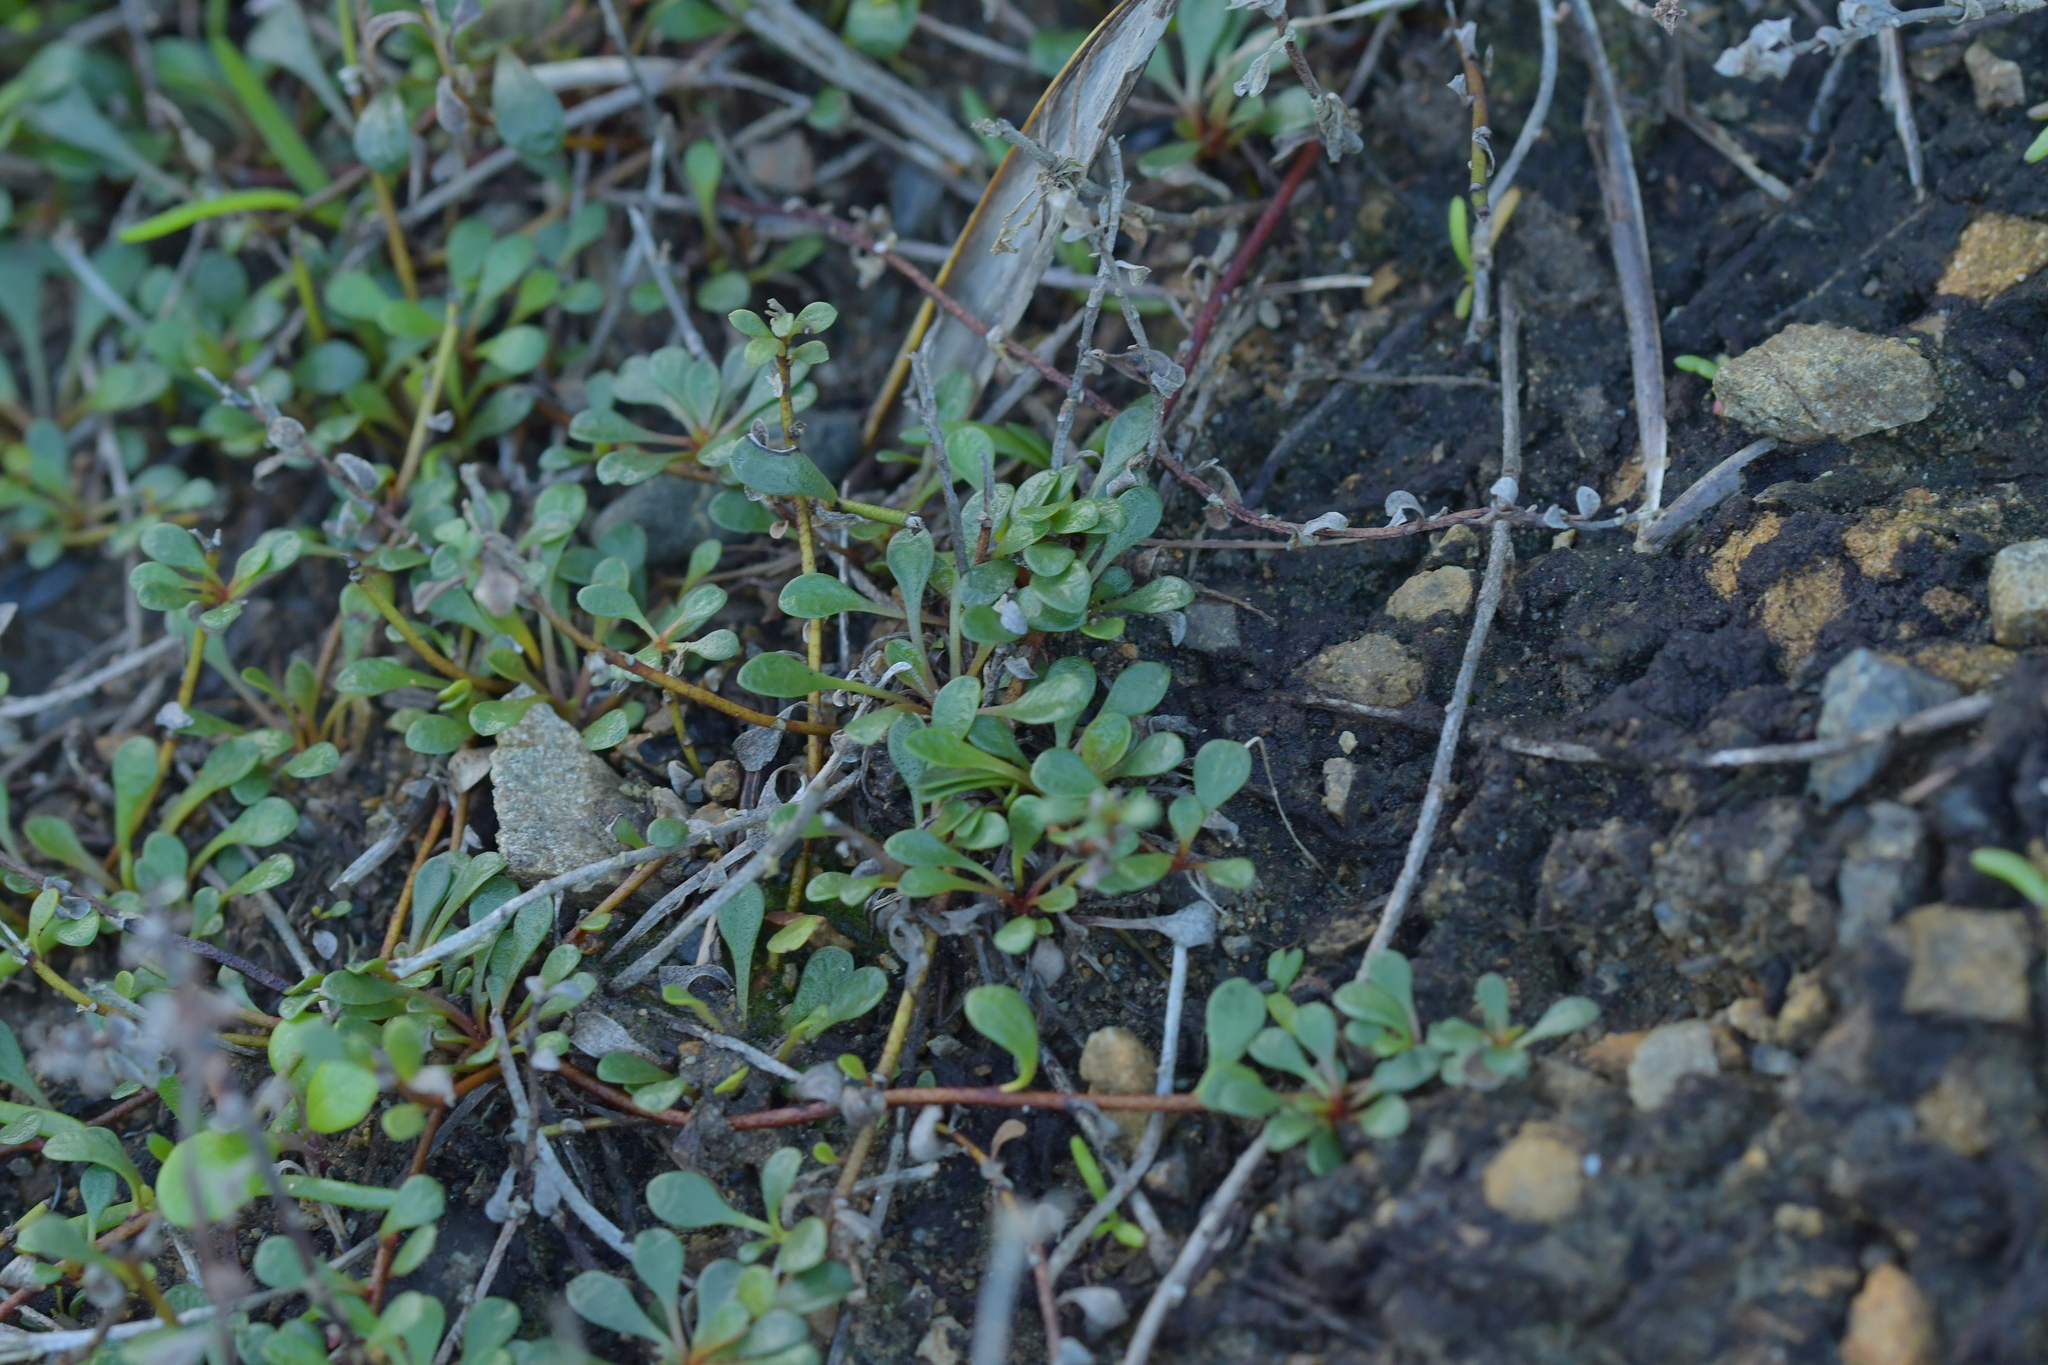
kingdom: Plantae
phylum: Tracheophyta
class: Magnoliopsida
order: Ericales
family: Primulaceae
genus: Samolus
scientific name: Samolus repens
